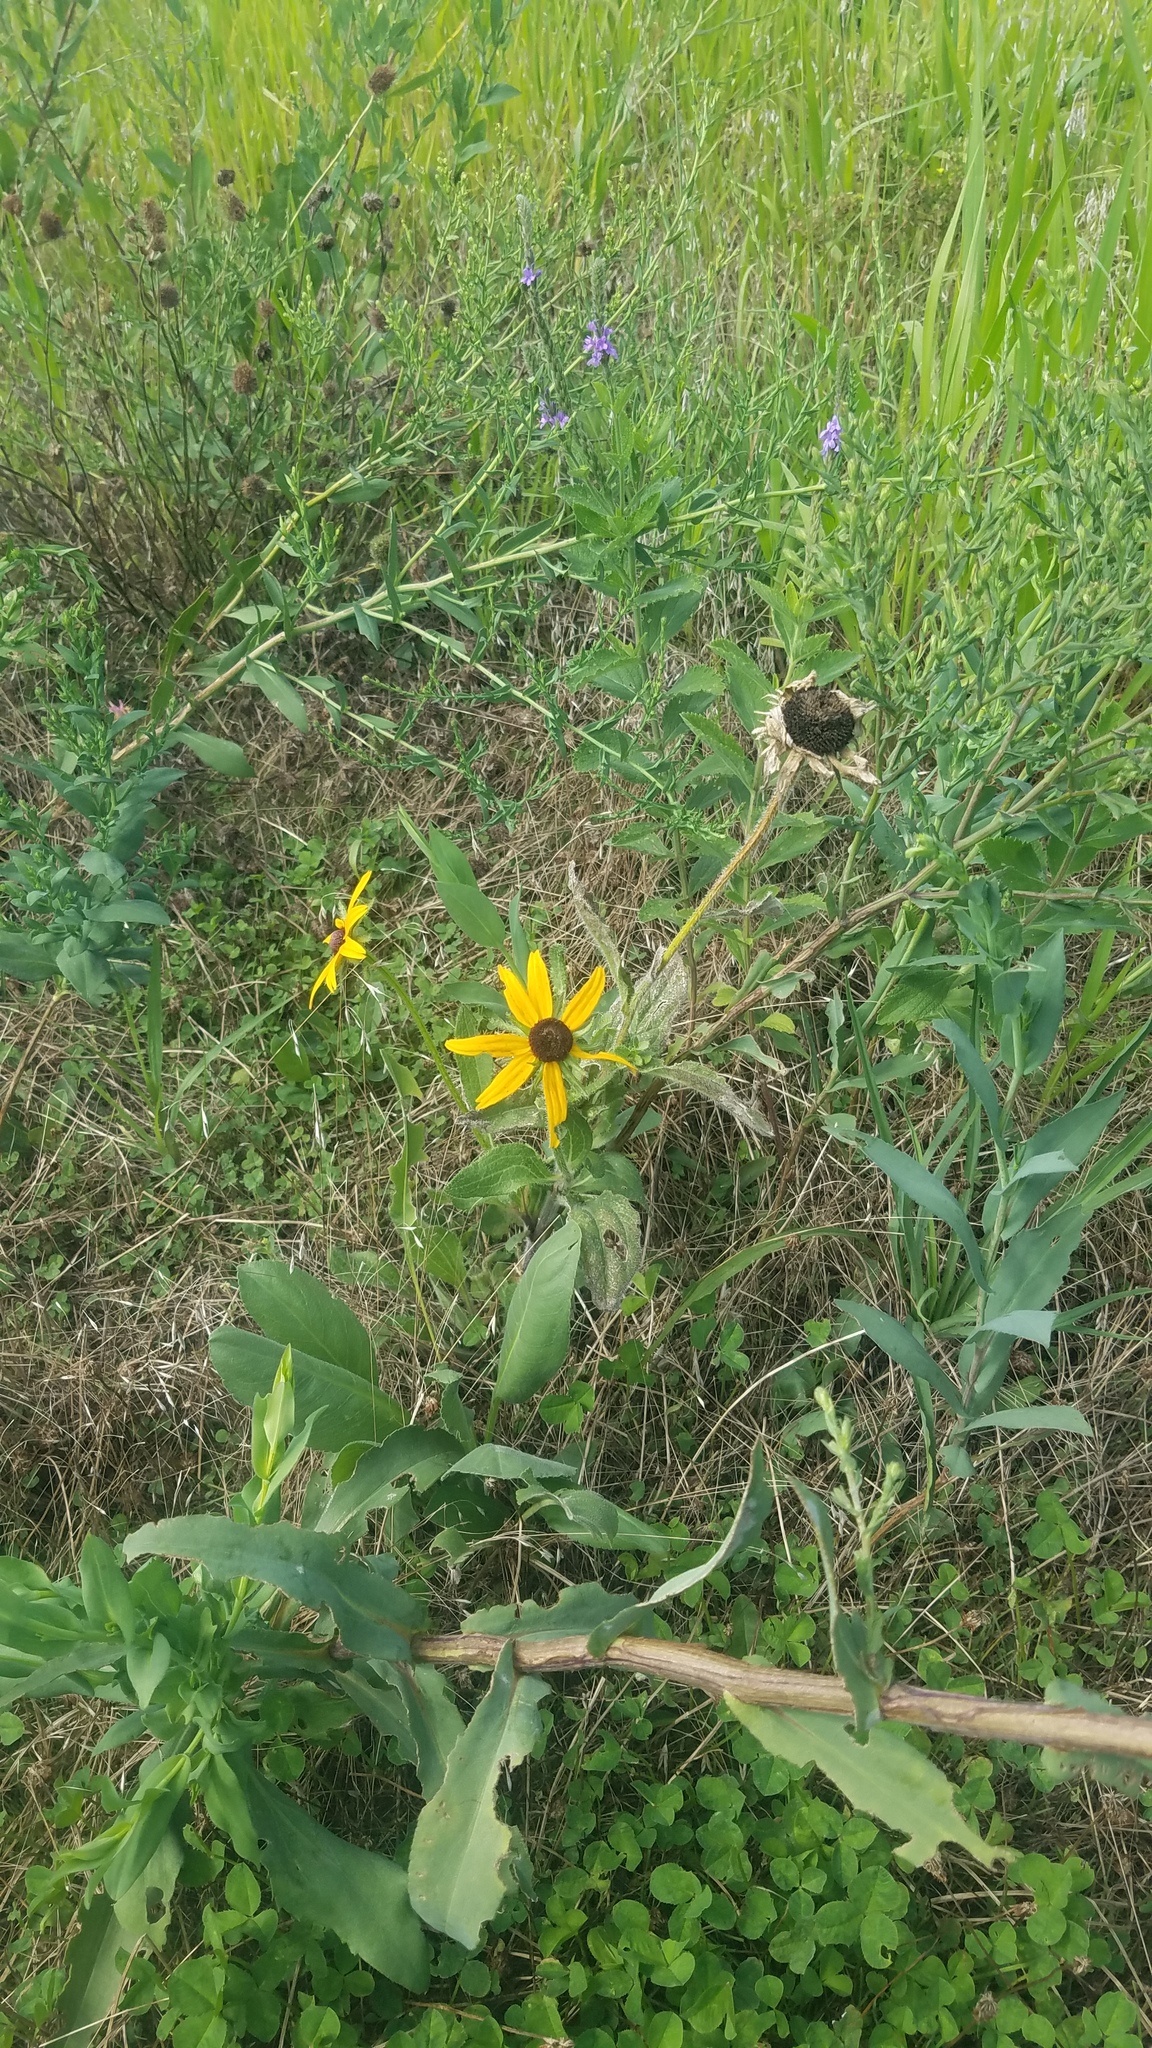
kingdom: Plantae
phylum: Tracheophyta
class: Magnoliopsida
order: Asterales
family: Asteraceae
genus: Rudbeckia
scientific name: Rudbeckia hirta
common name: Black-eyed-susan
